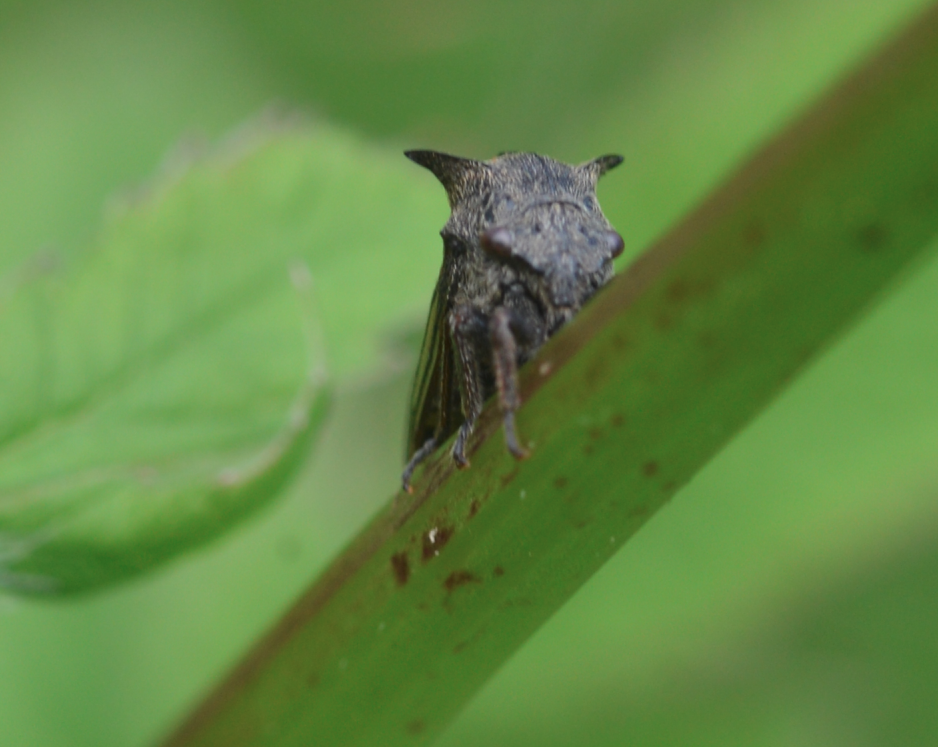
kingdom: Animalia
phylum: Arthropoda
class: Insecta
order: Hemiptera
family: Membracidae
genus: Centrotus
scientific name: Centrotus cornuta
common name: Treehopper
